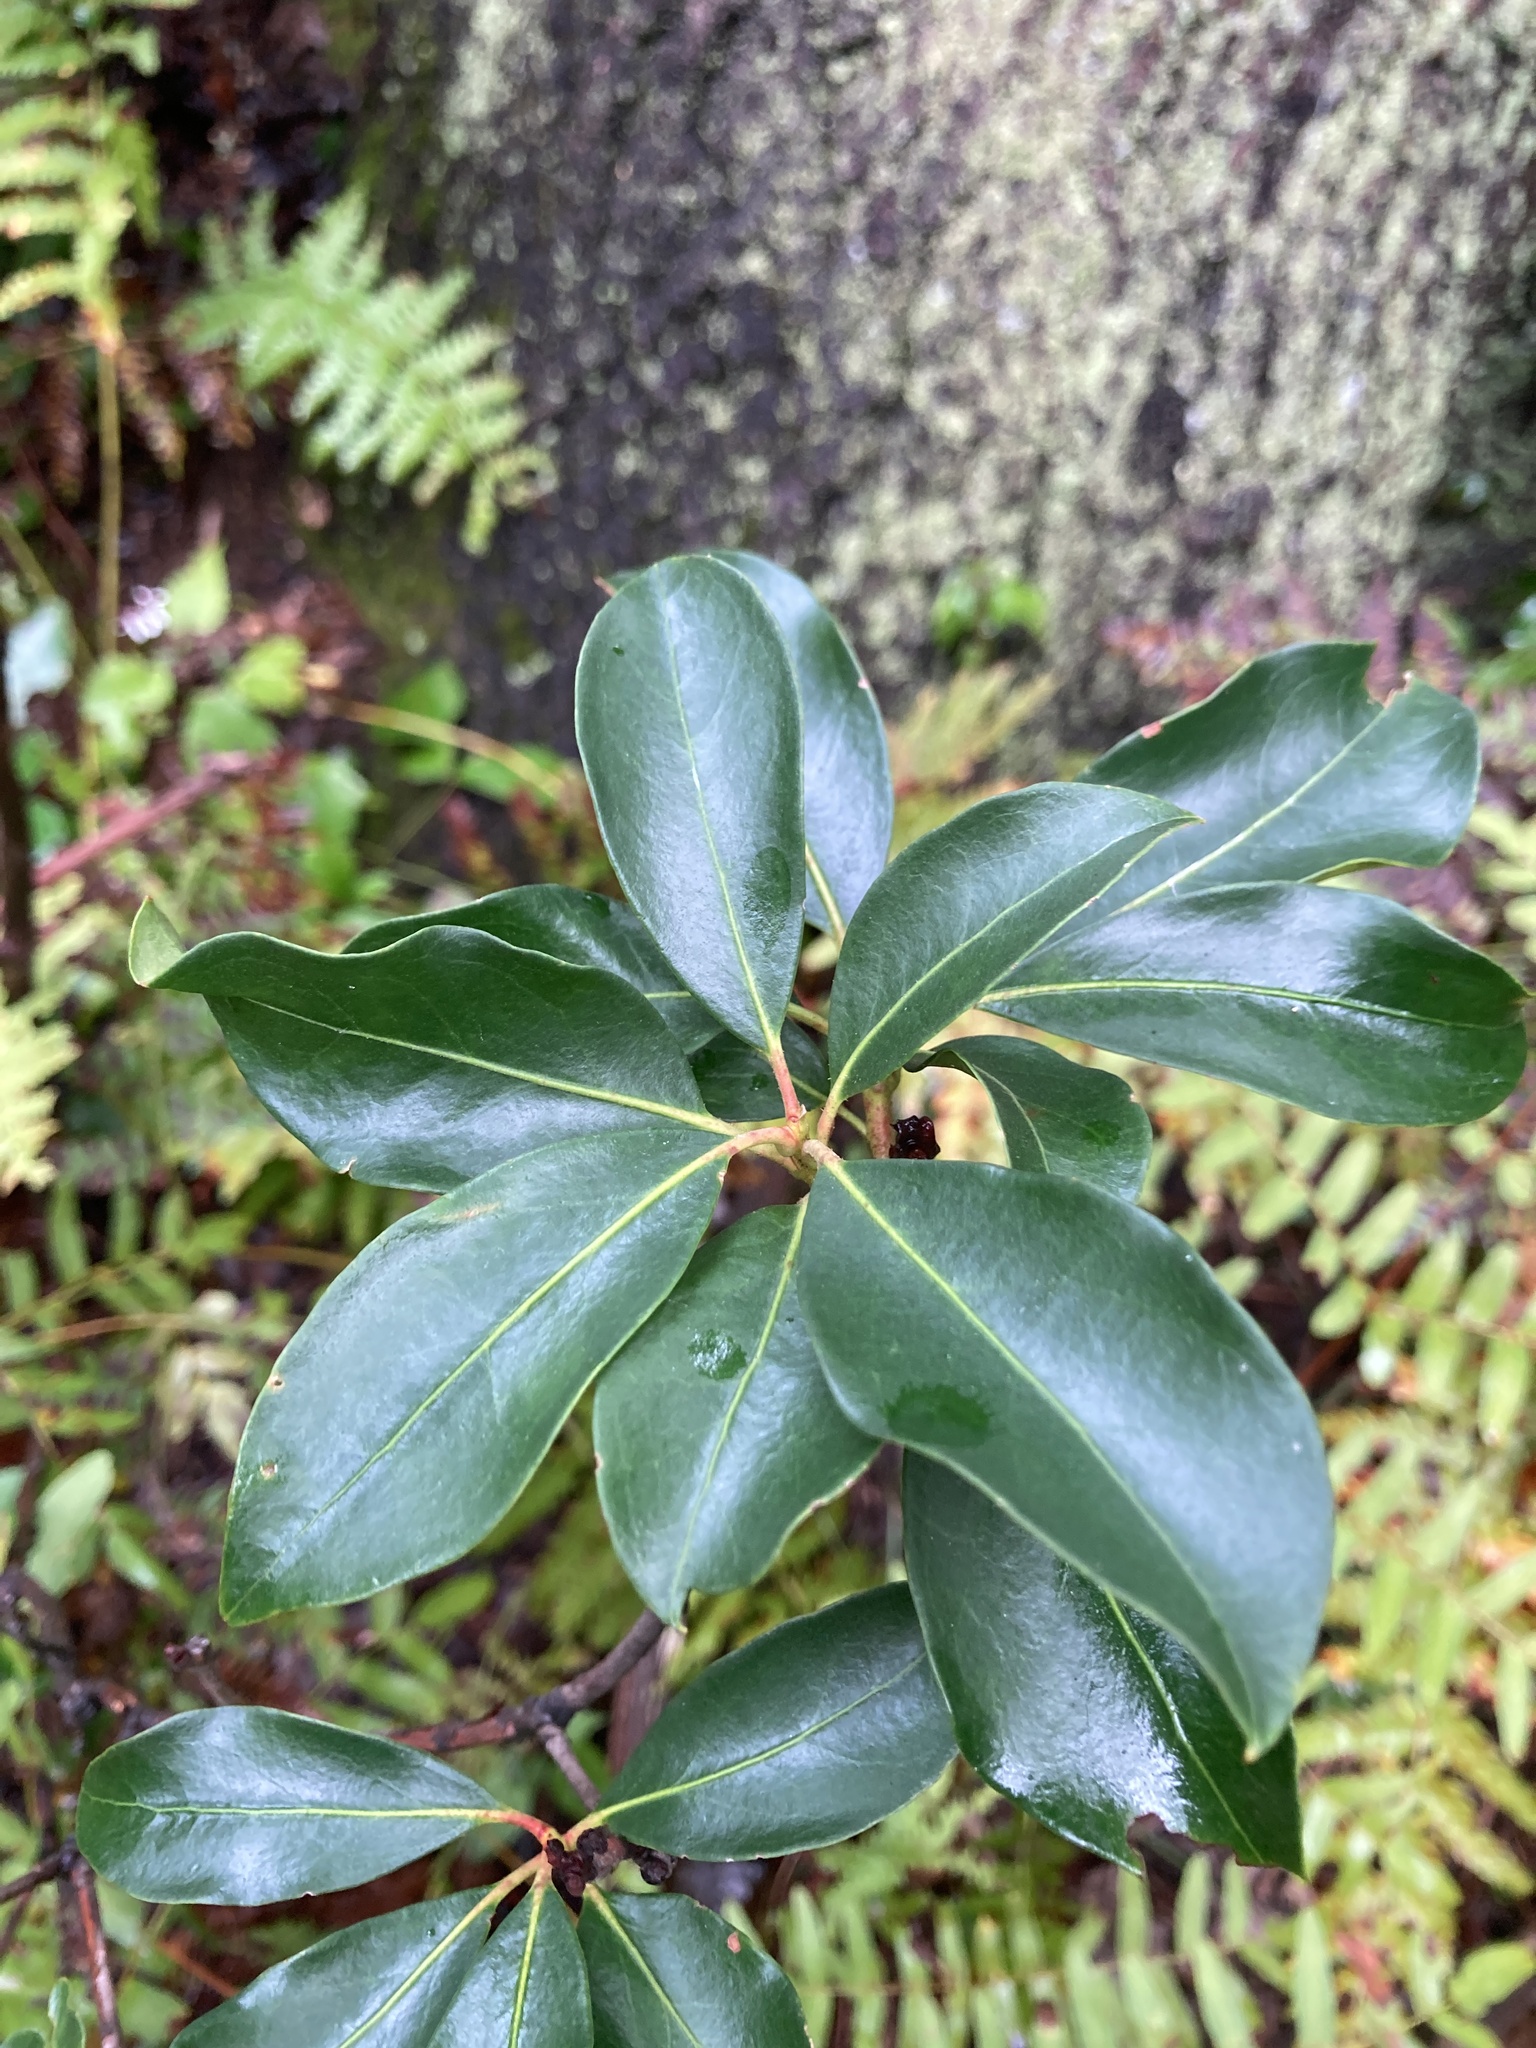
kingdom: Plantae
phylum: Tracheophyta
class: Magnoliopsida
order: Ericales
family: Ericaceae
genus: Kalmia
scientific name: Kalmia latifolia
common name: Mountain-laurel
